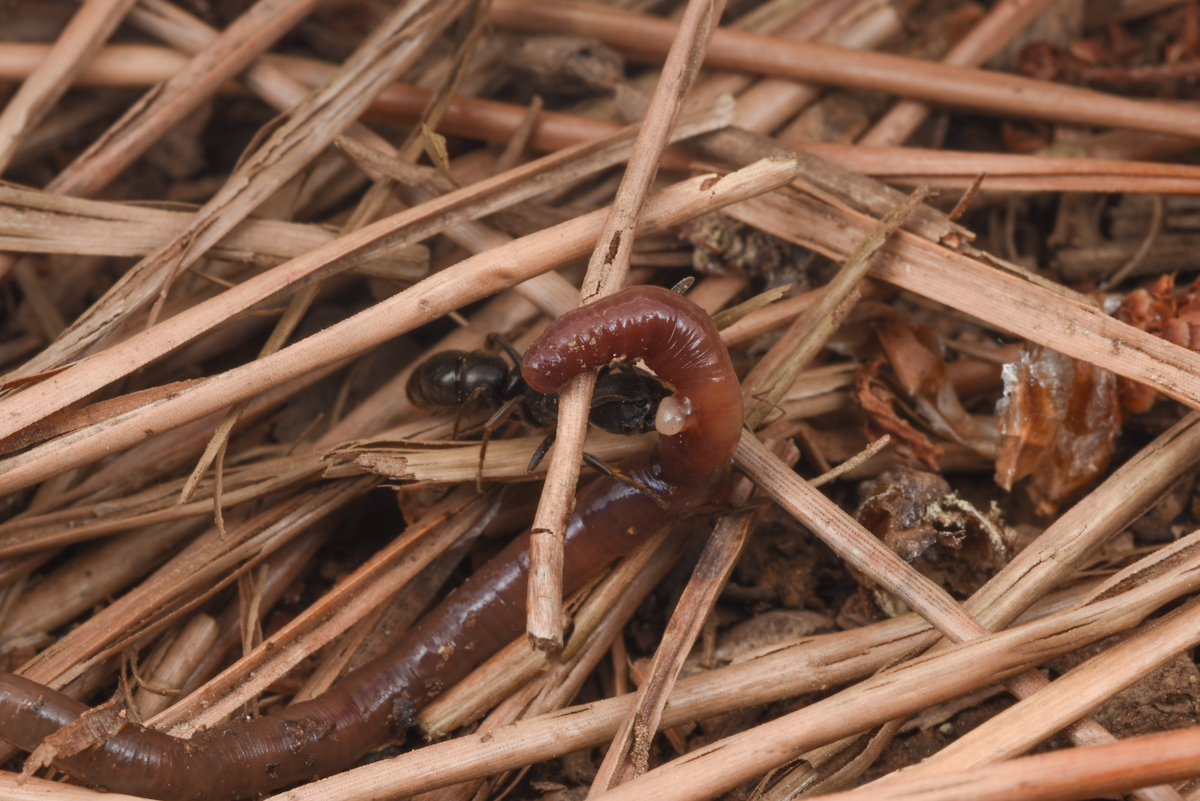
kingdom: Animalia
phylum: Arthropoda
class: Insecta
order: Hymenoptera
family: Formicidae
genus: Ectomomyrmex
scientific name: Ectomomyrmex javanus
